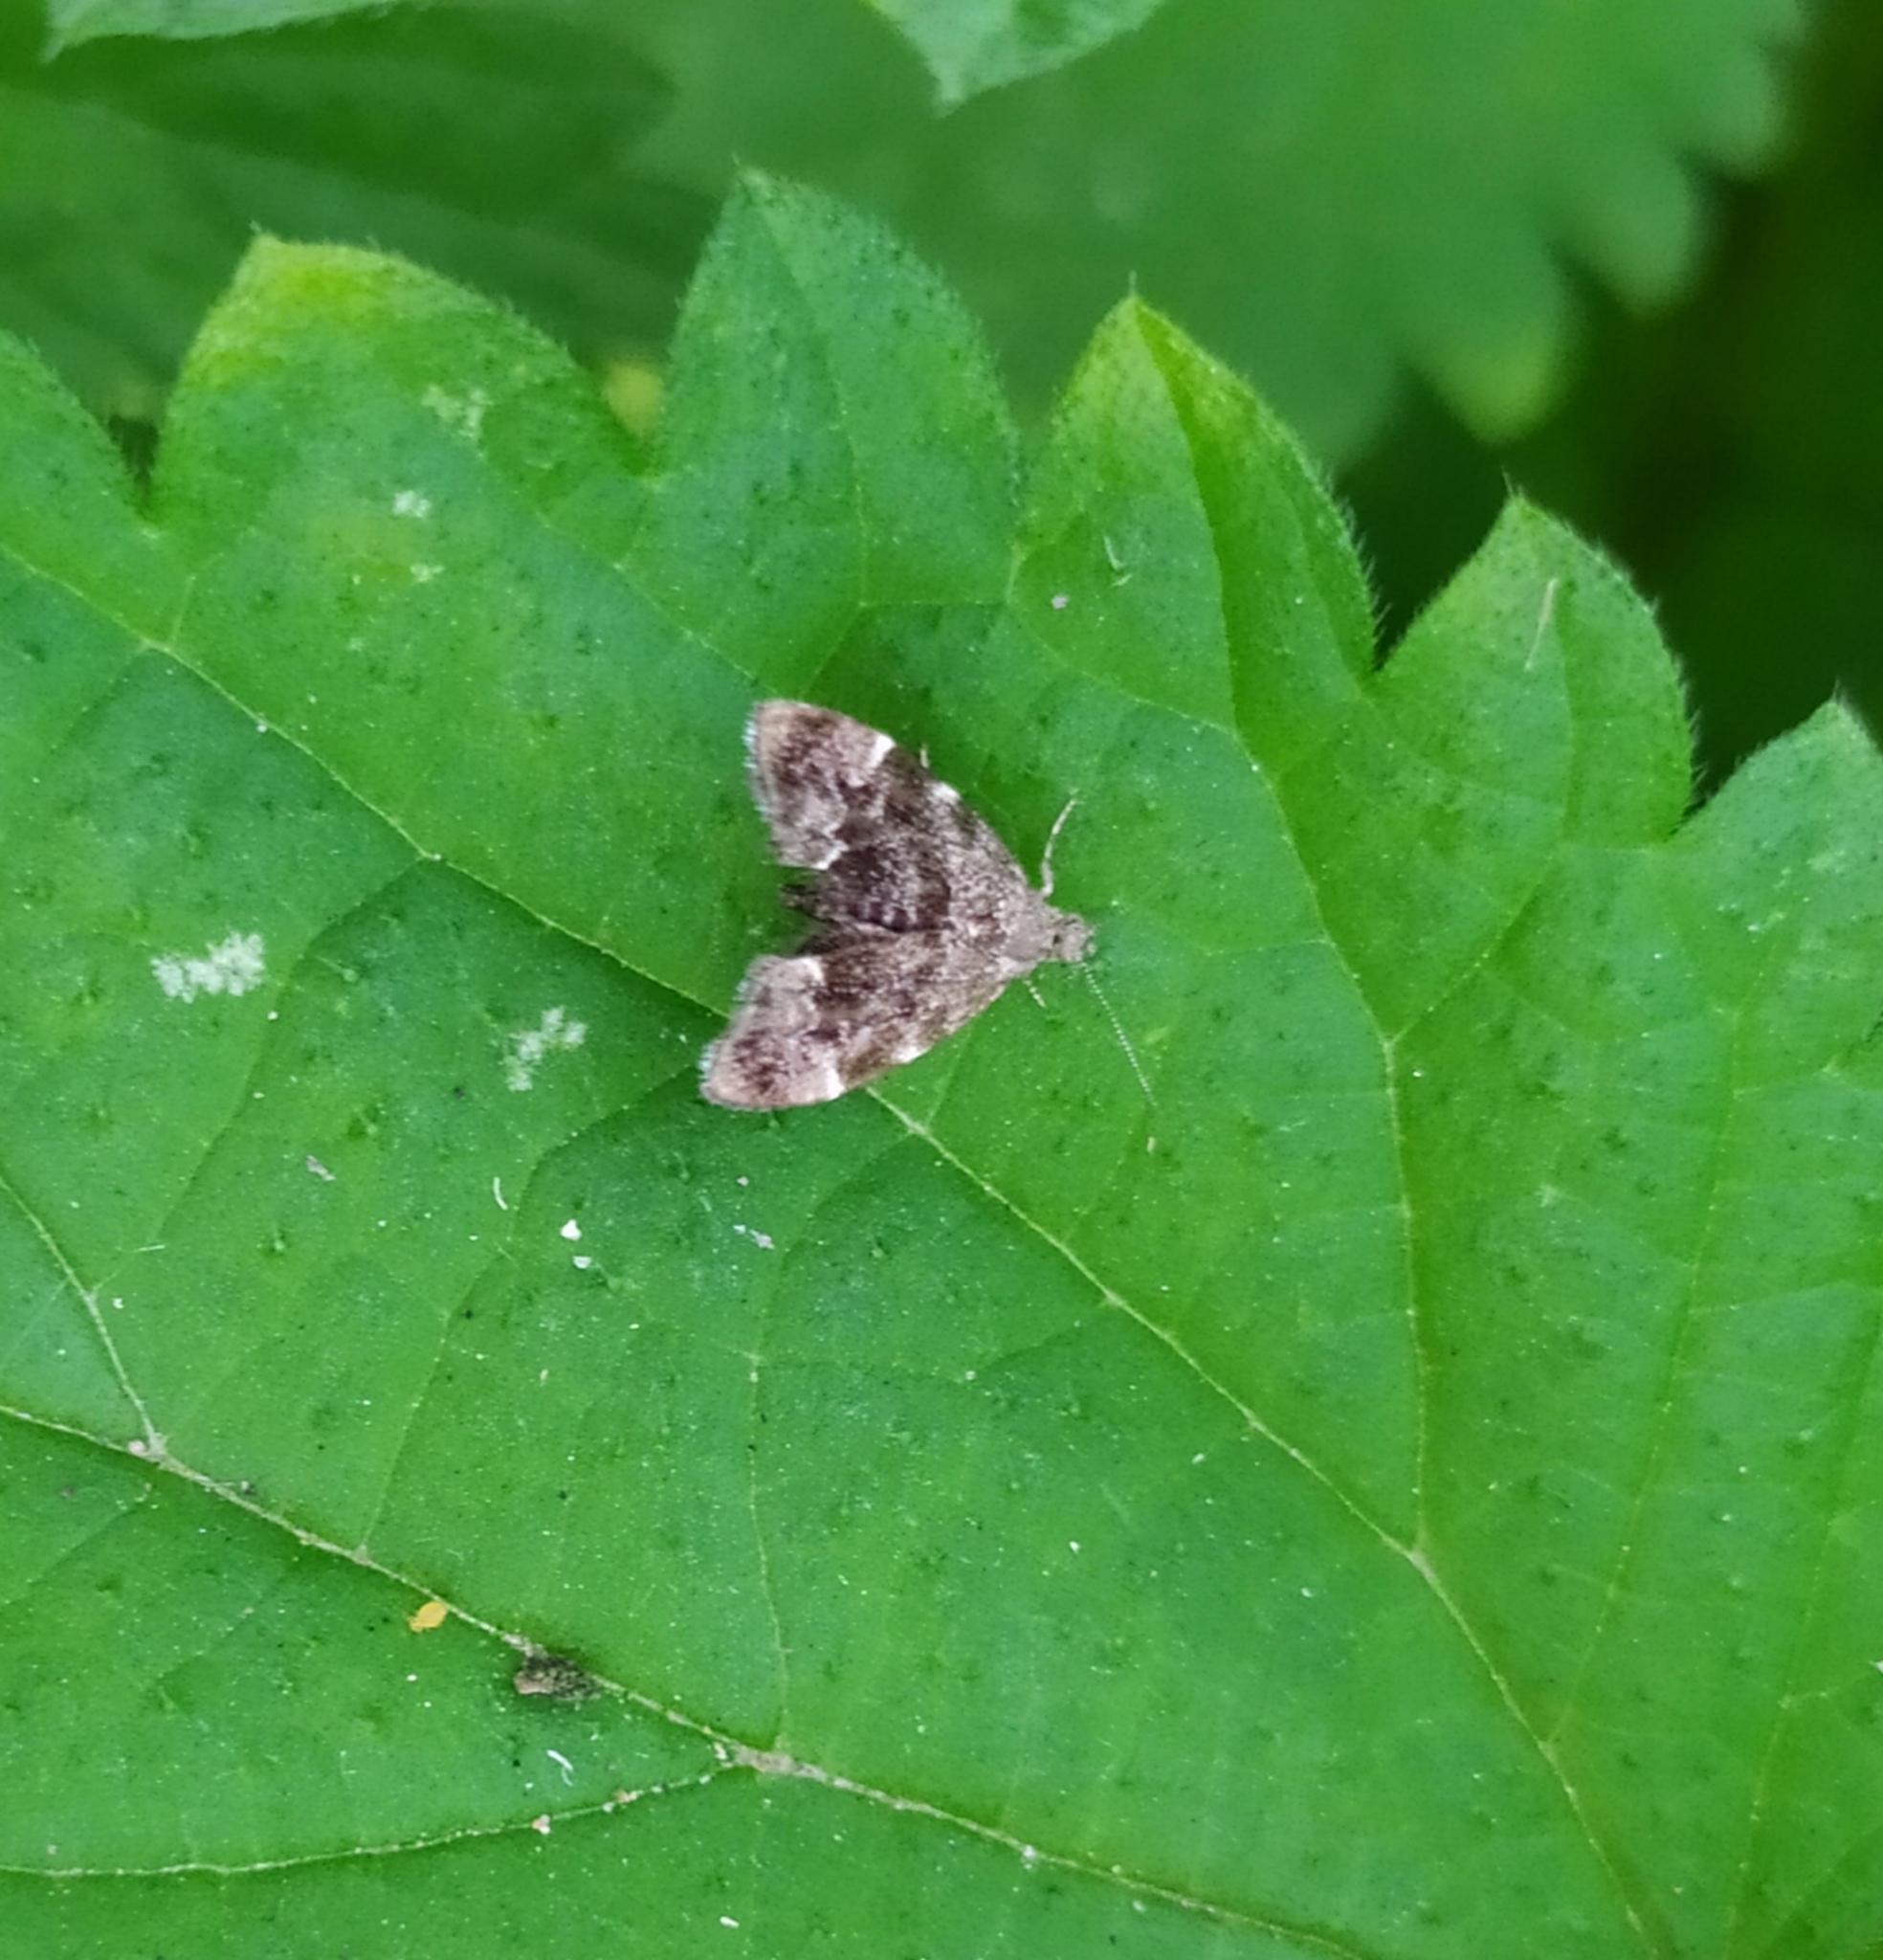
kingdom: Animalia
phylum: Arthropoda
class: Insecta
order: Lepidoptera
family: Choreutidae
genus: Anthophila
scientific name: Anthophila fabriciana
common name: Nettle-tap
